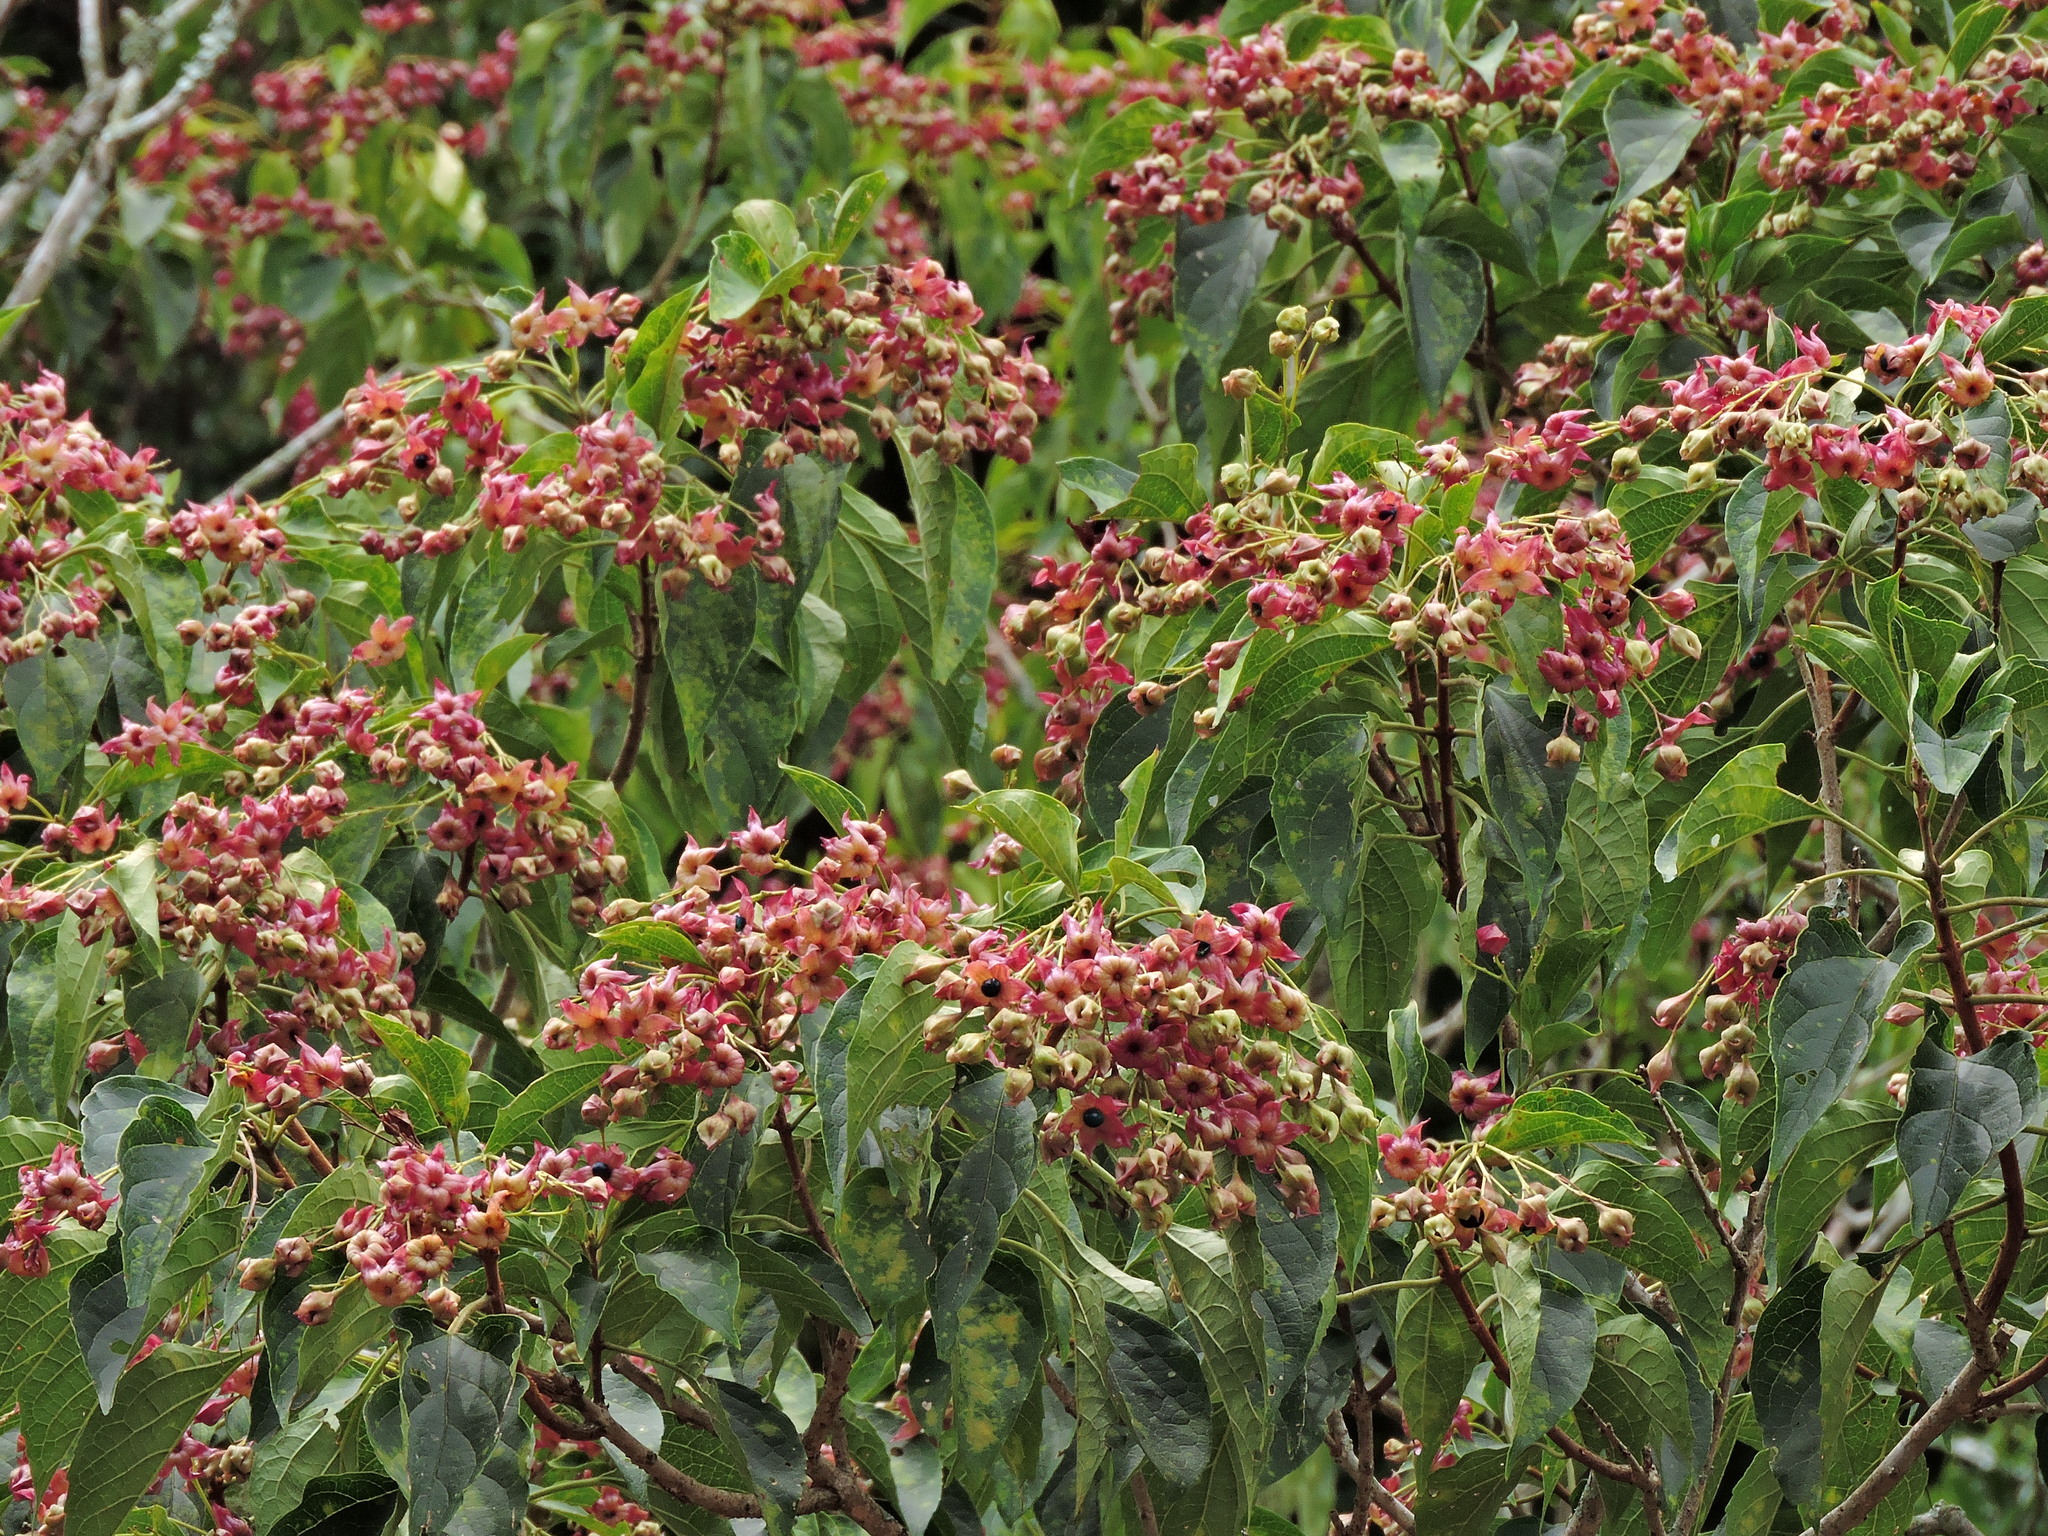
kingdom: Plantae
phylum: Tracheophyta
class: Magnoliopsida
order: Lamiales
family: Lamiaceae
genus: Clerodendrum
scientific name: Clerodendrum trichotomum
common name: Harlequin glorybower
